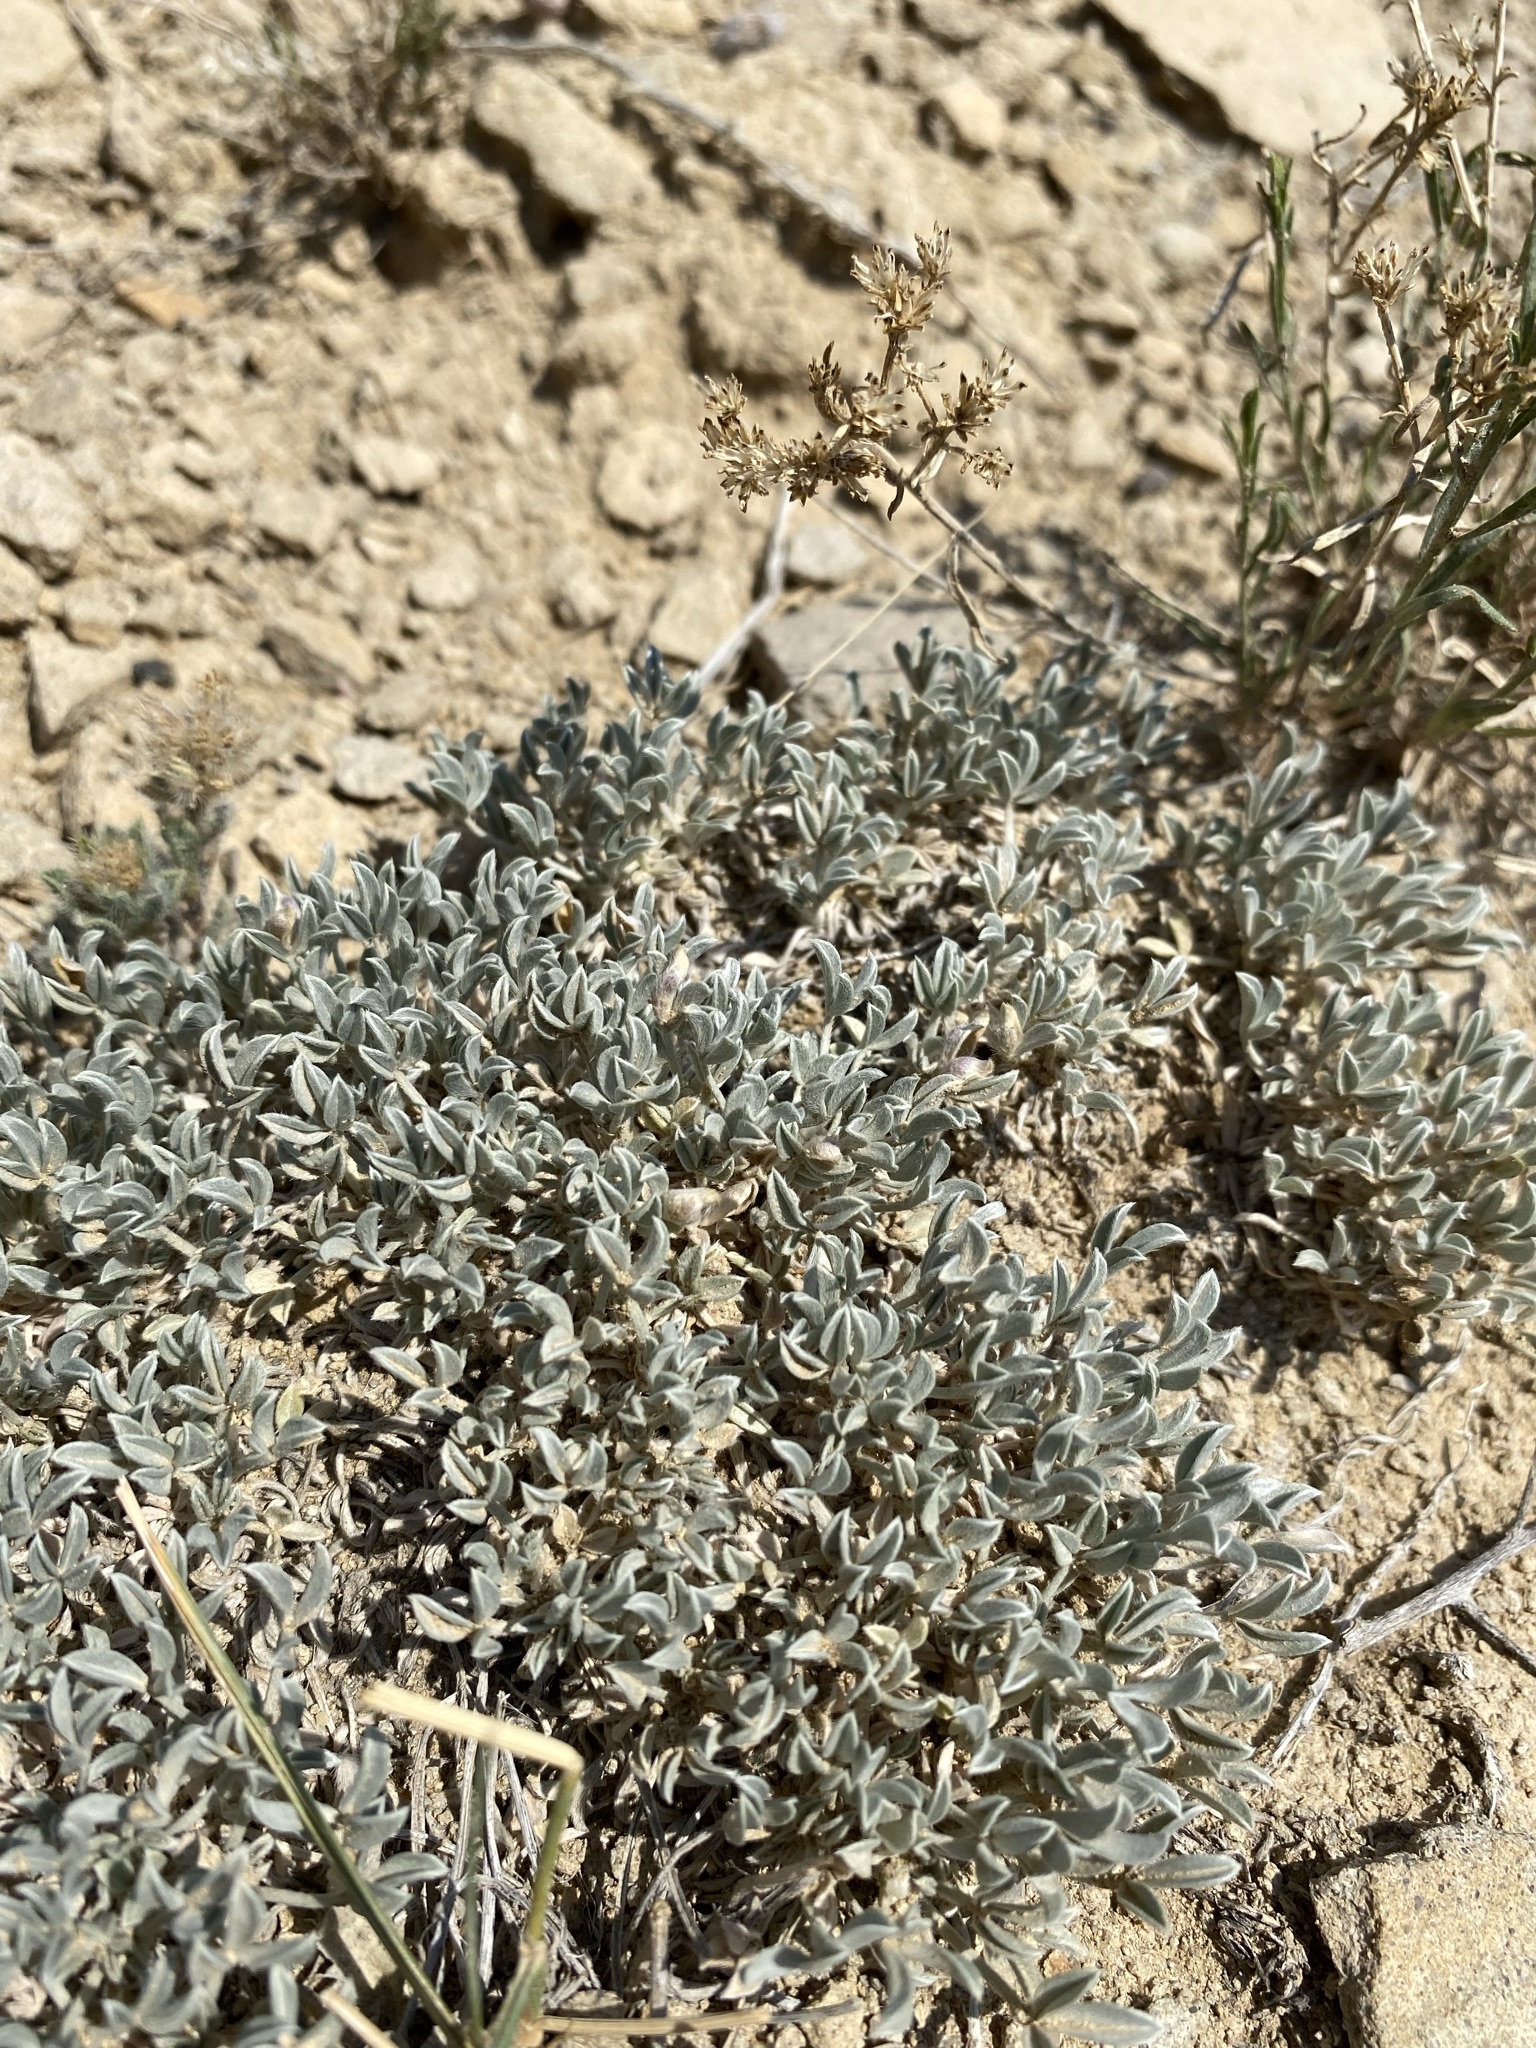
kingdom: Plantae
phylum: Tracheophyta
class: Magnoliopsida
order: Fabales
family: Fabaceae
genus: Astragalus
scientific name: Astragalus hyalinus
